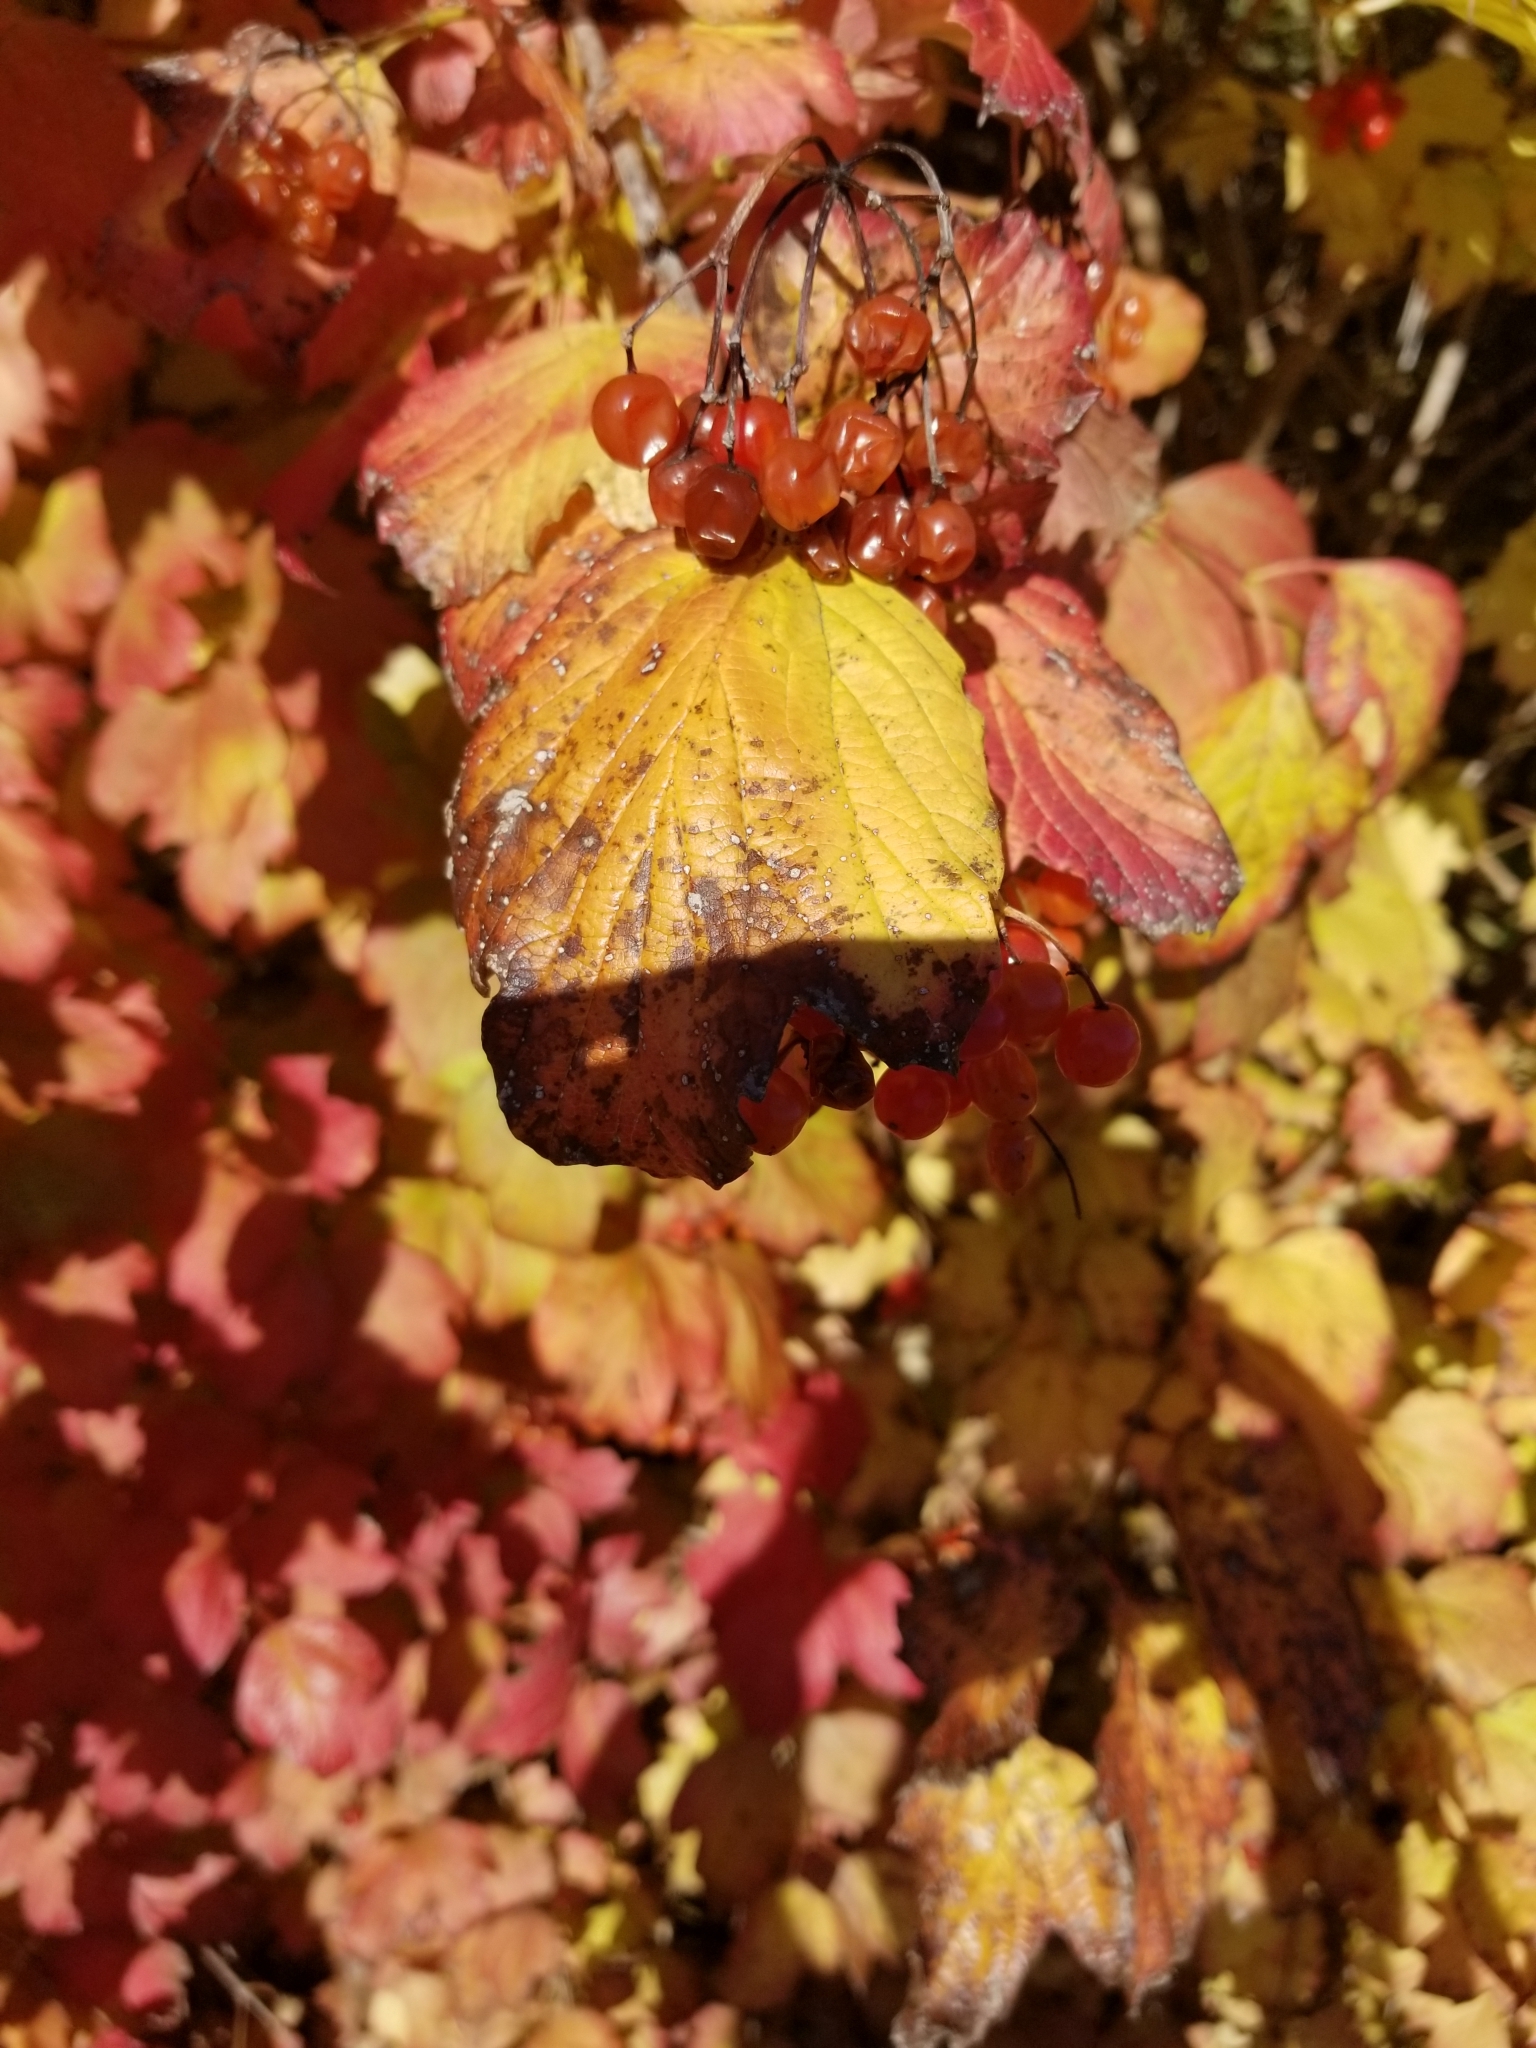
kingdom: Plantae
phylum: Tracheophyta
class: Magnoliopsida
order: Dipsacales
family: Viburnaceae
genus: Viburnum
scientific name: Viburnum opulus
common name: Guelder-rose
